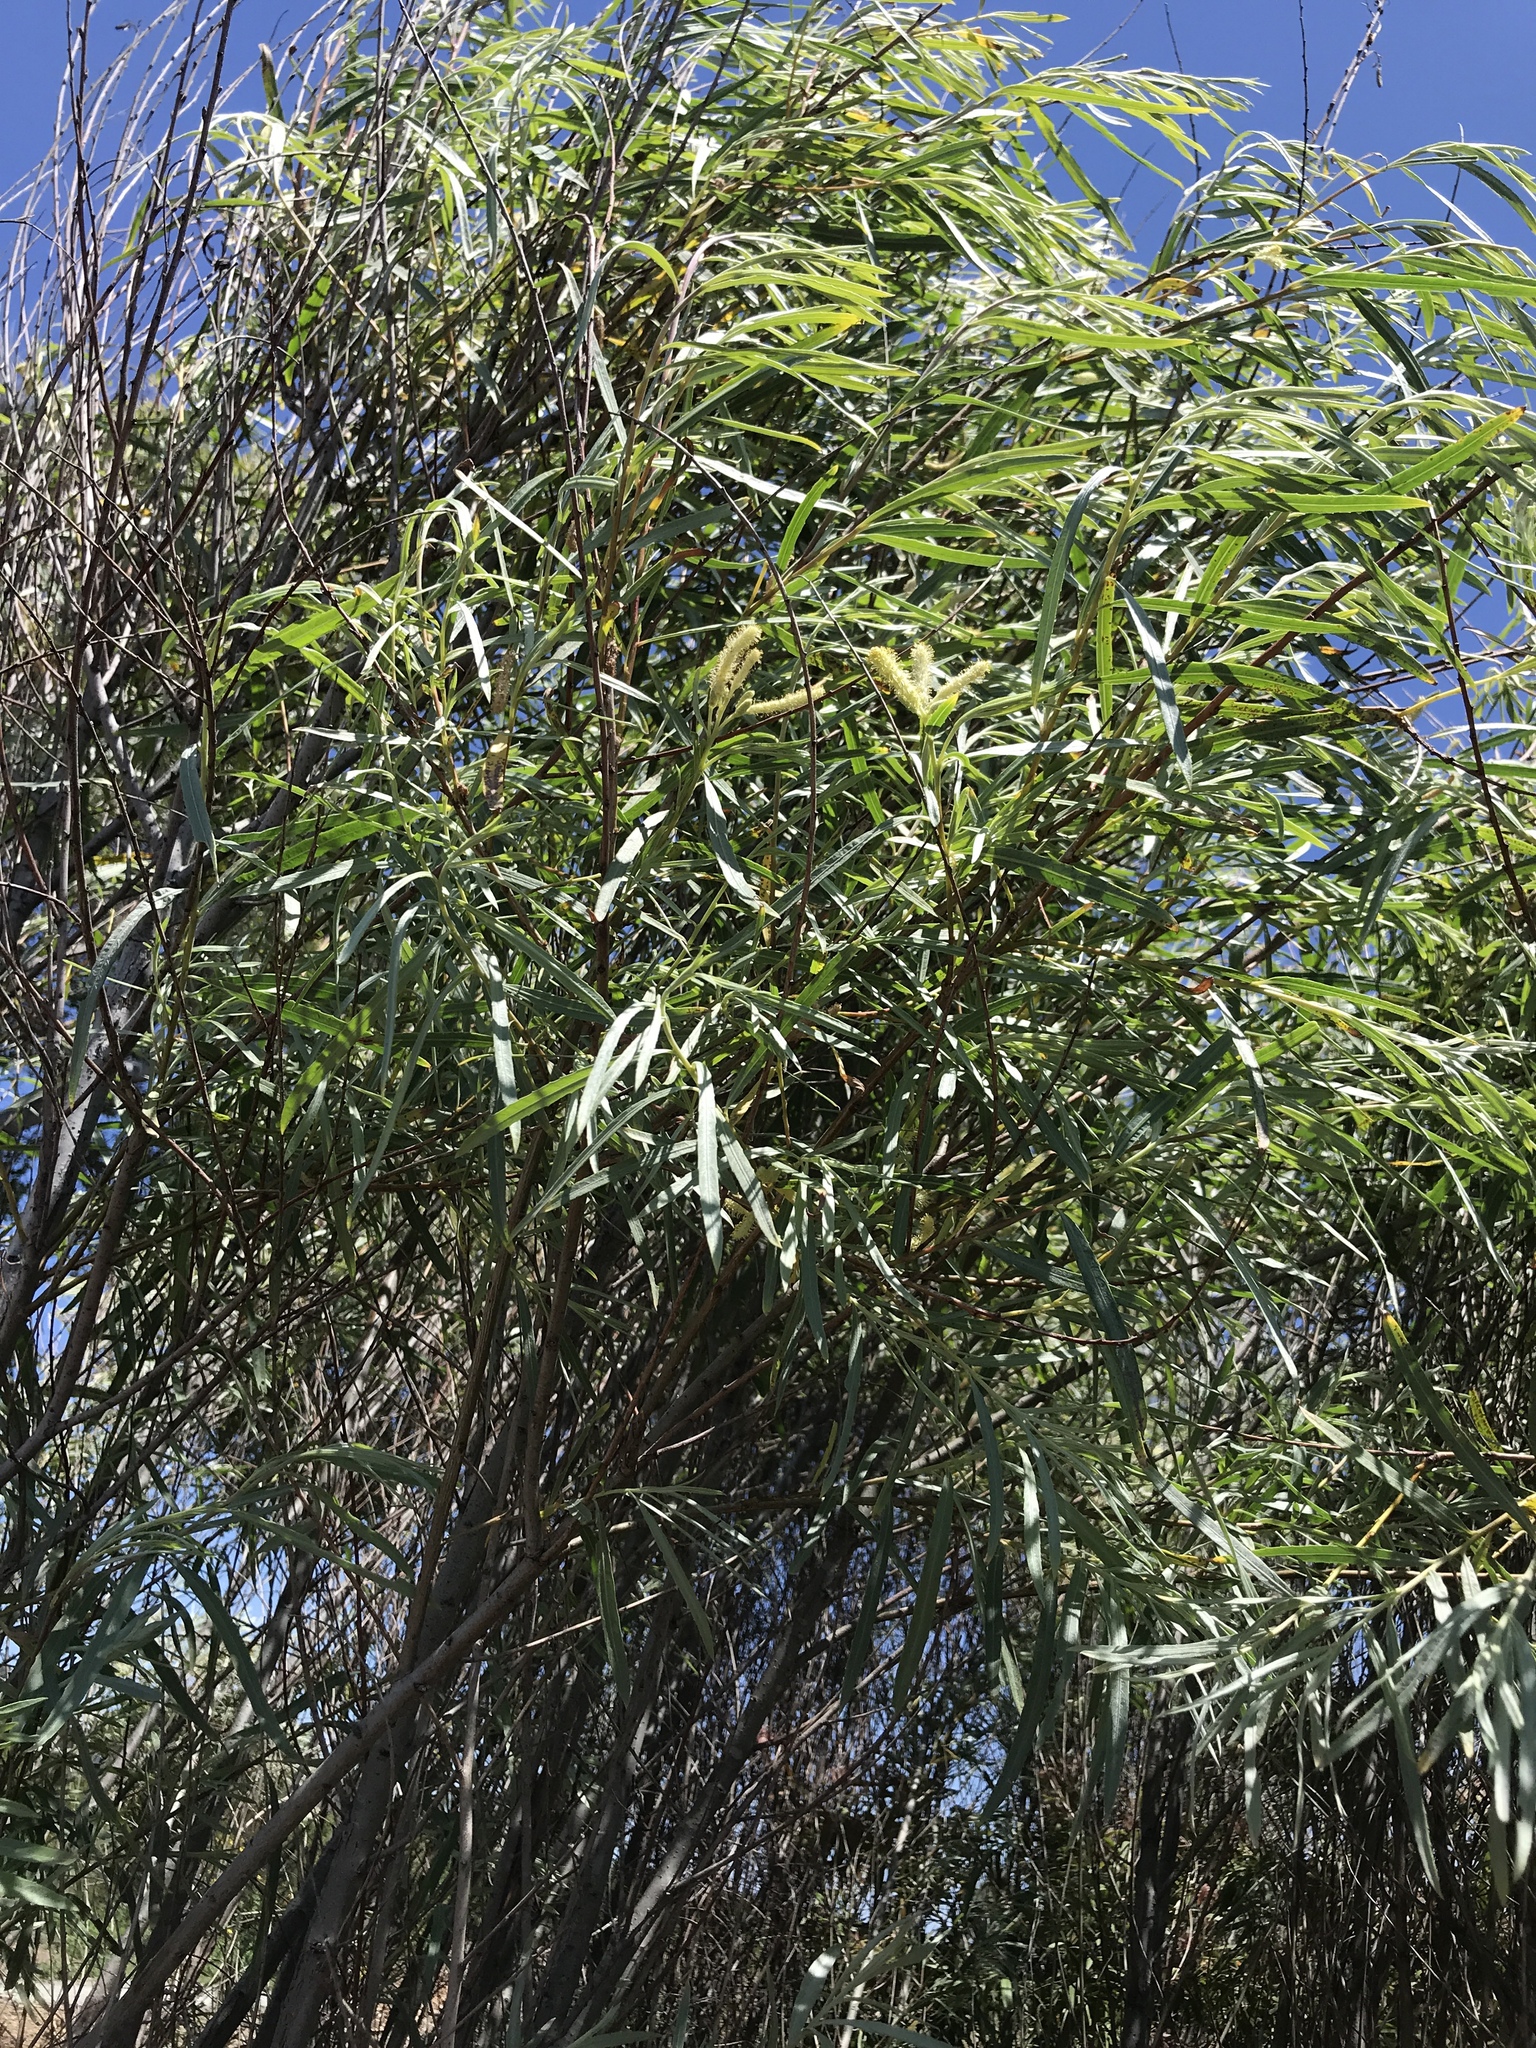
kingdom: Plantae
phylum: Tracheophyta
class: Magnoliopsida
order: Malpighiales
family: Salicaceae
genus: Salix
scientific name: Salix exigua
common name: Coyote willow
